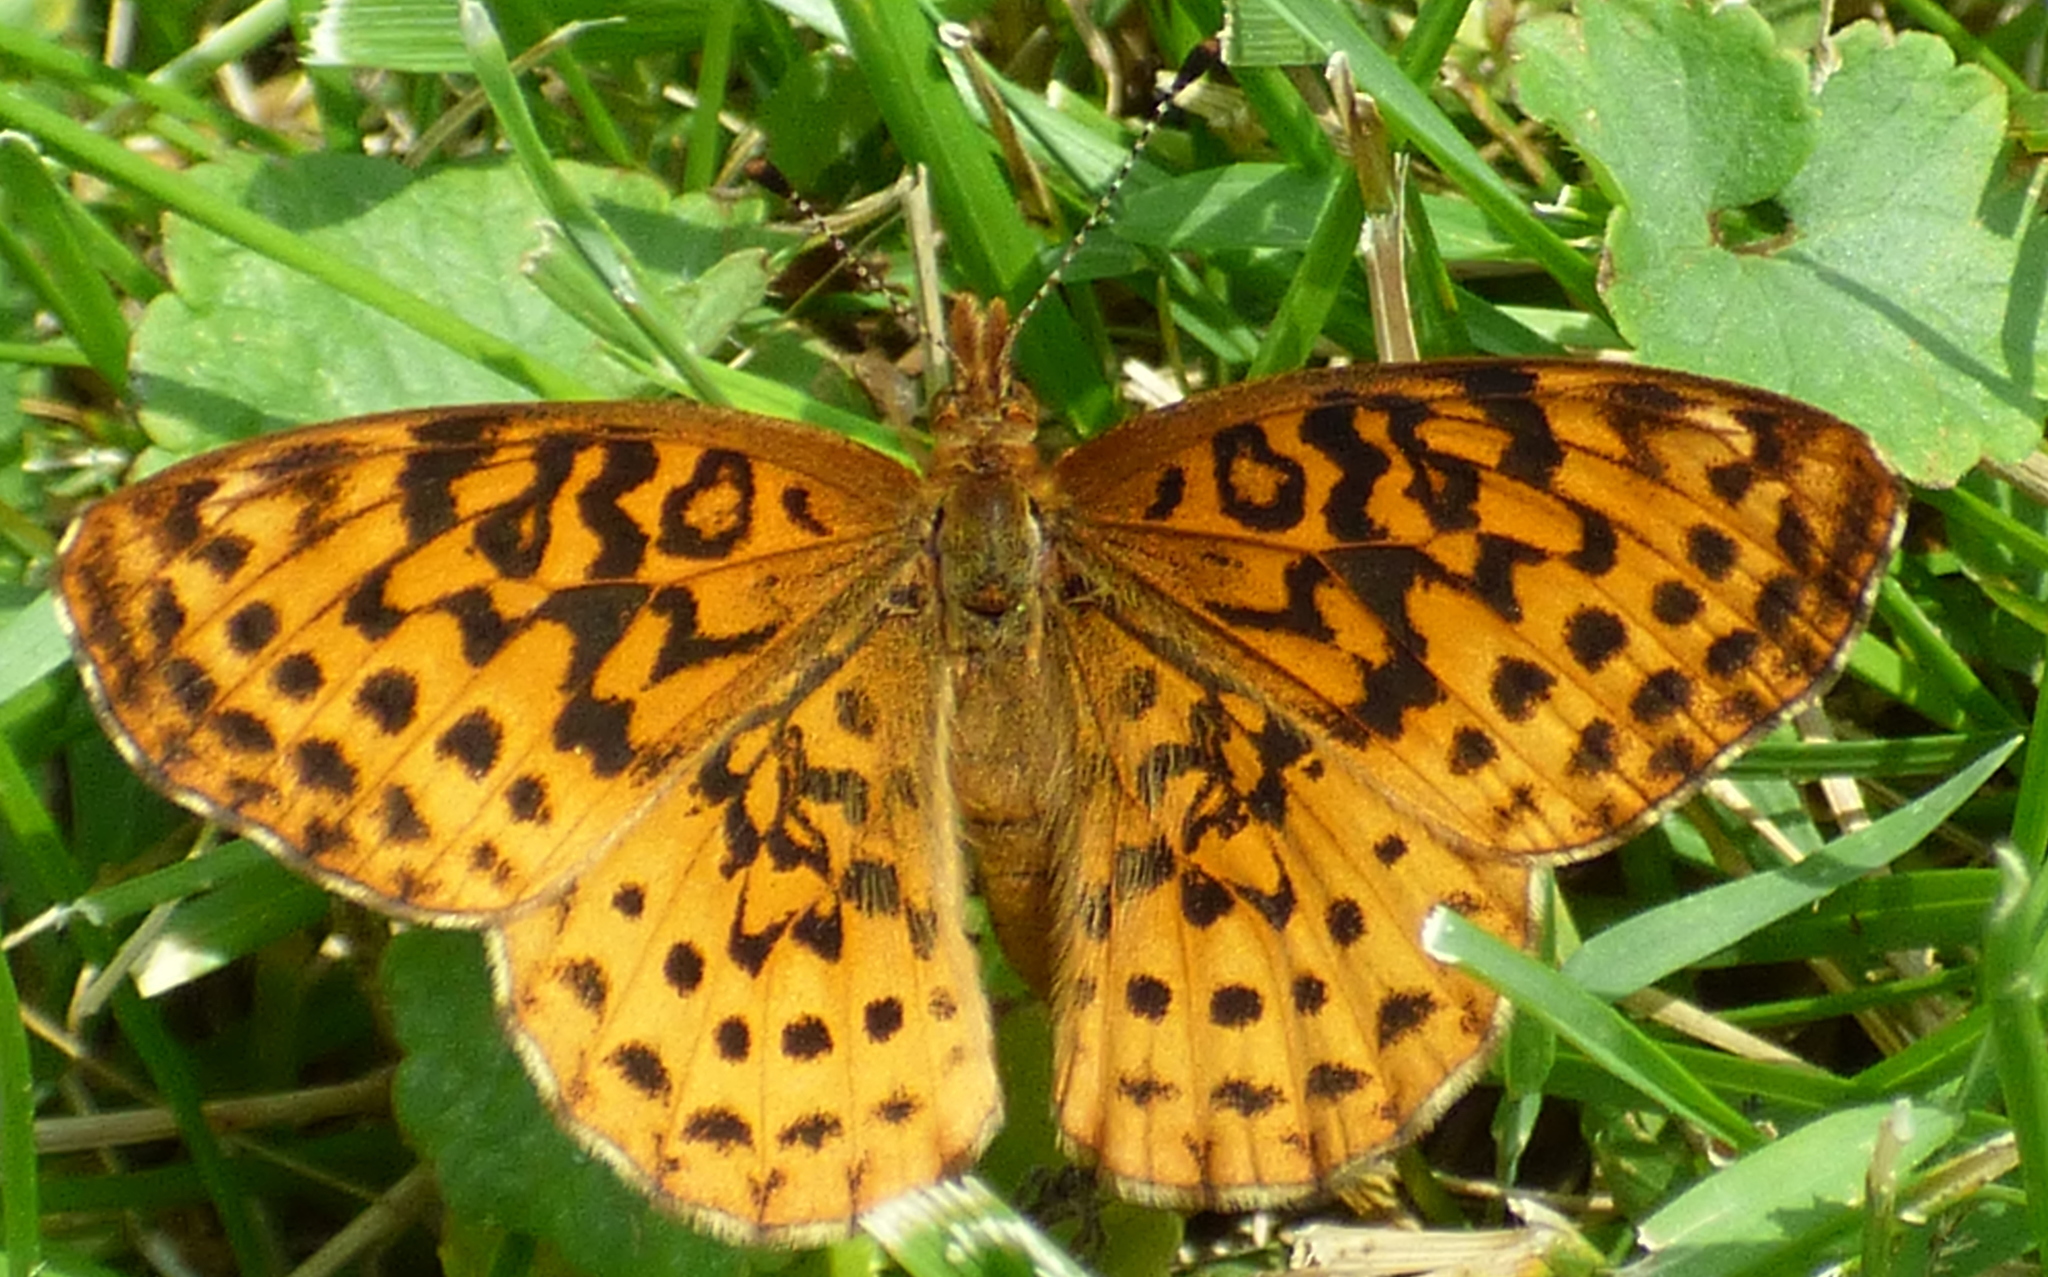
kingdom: Animalia
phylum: Arthropoda
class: Insecta
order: Lepidoptera
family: Nymphalidae
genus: Clossiana
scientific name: Clossiana toddi
